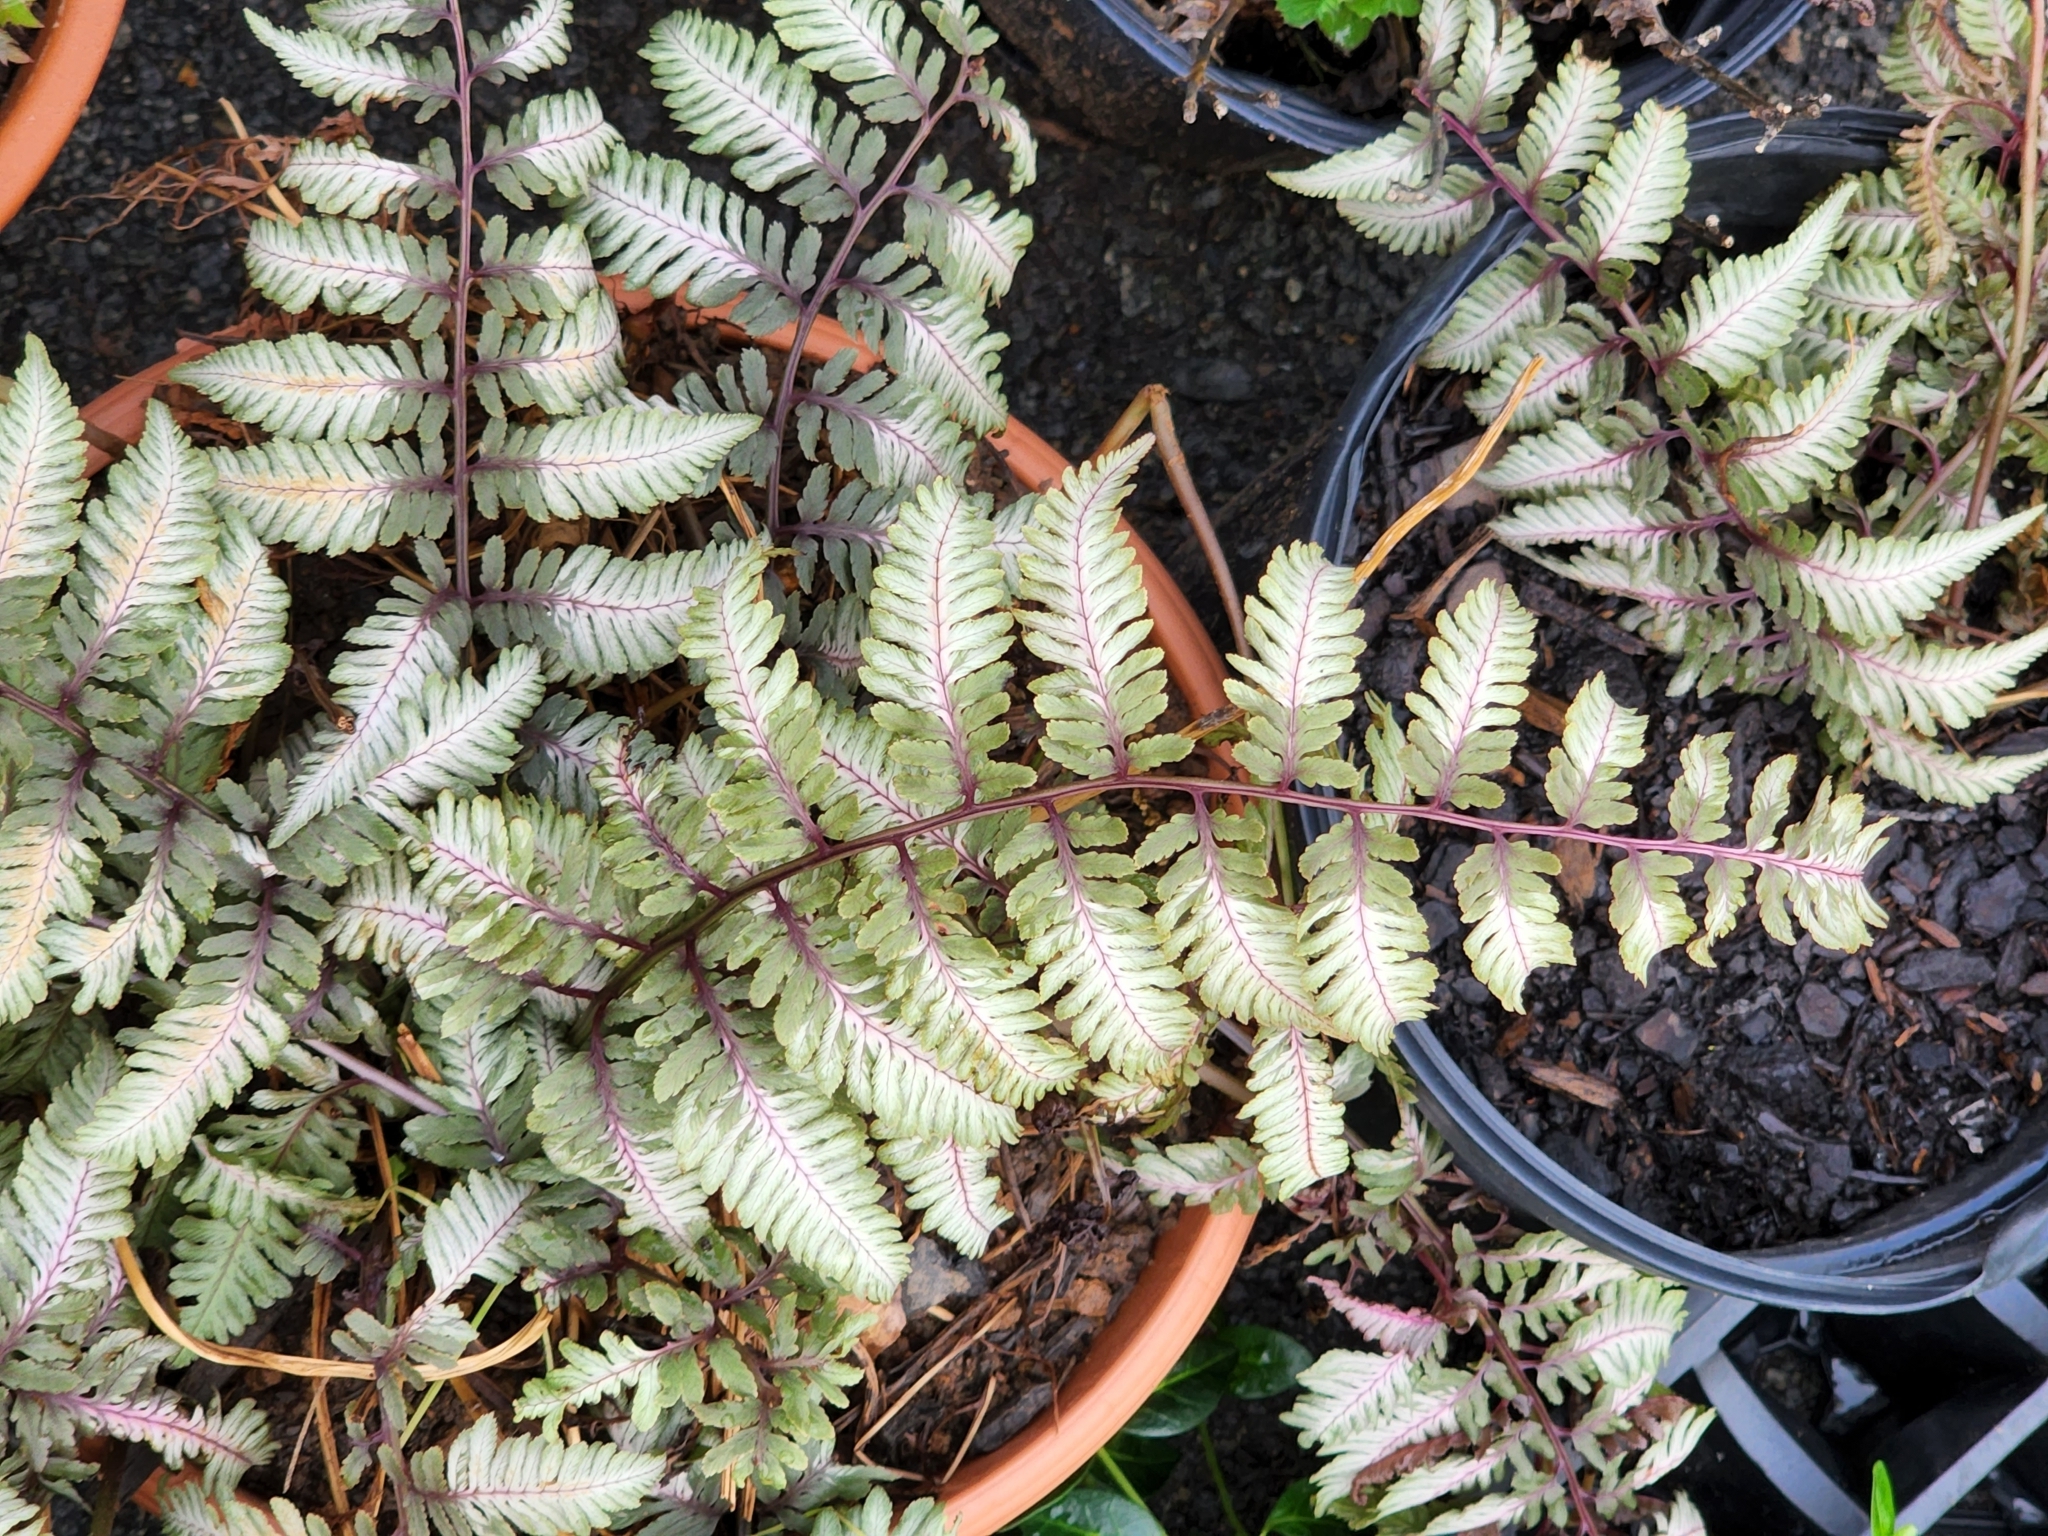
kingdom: Plantae
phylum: Tracheophyta
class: Polypodiopsida
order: Polypodiales
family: Athyriaceae
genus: Anisocampium
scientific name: Anisocampium niponicum
